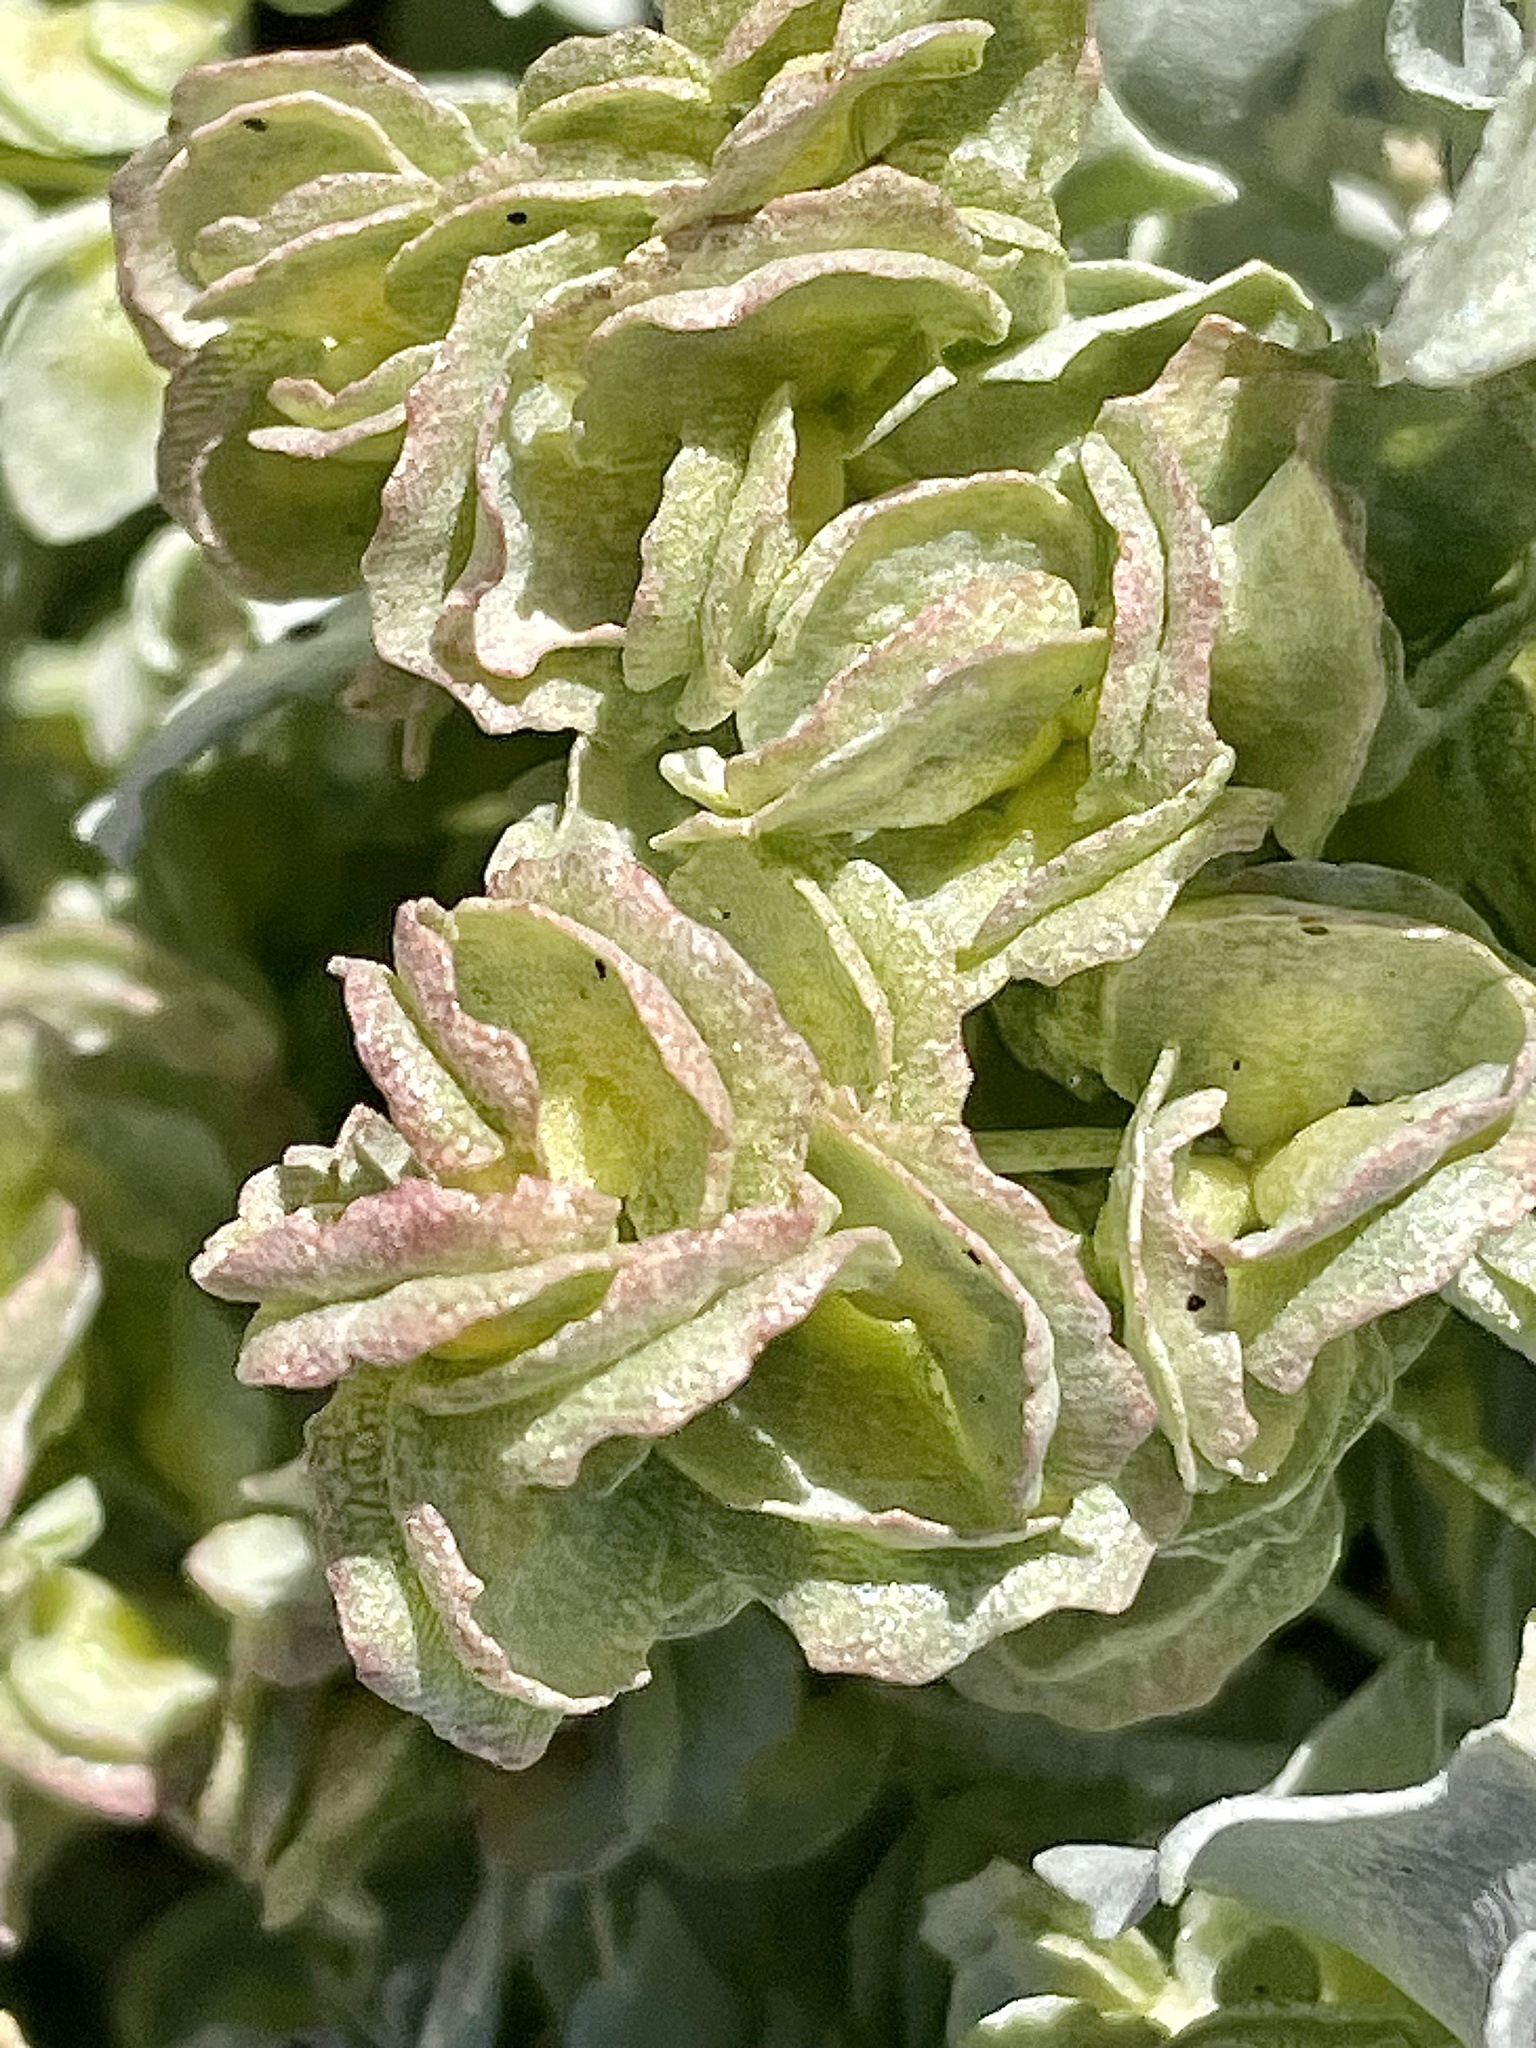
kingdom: Plantae
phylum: Tracheophyta
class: Magnoliopsida
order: Caryophyllales
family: Amaranthaceae
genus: Atriplex
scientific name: Atriplex hymenelytra
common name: Desert-holly
